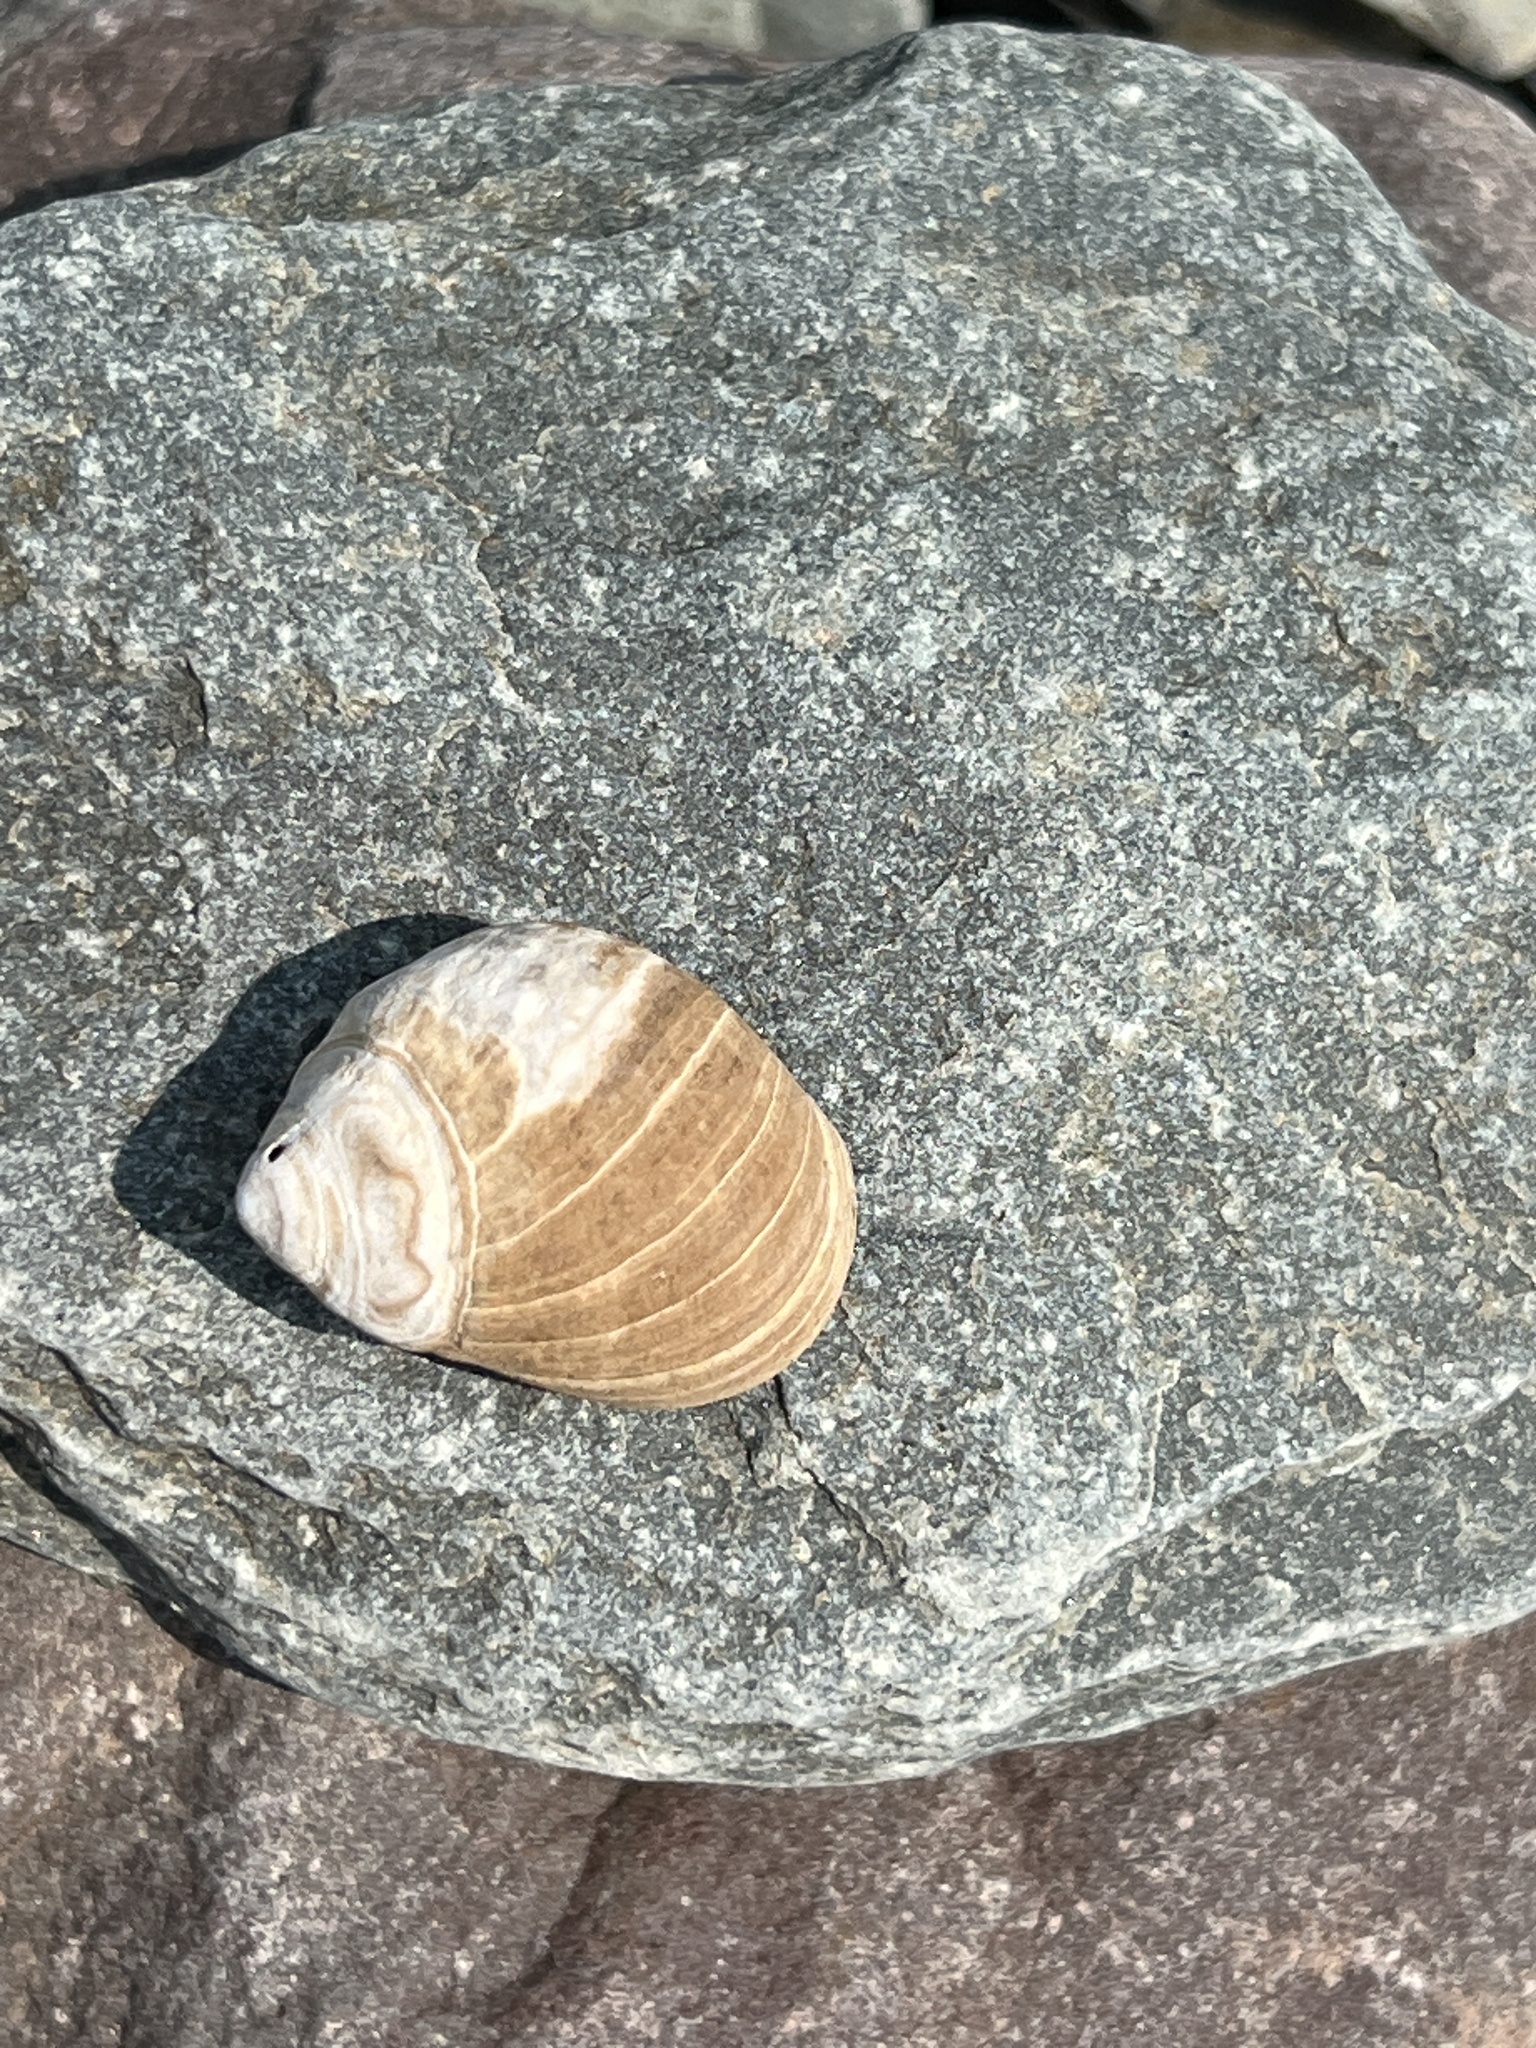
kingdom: Animalia
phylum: Mollusca
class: Gastropoda
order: Littorinimorpha
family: Littorinidae
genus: Littorina
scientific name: Littorina littorea
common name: Common periwinkle
